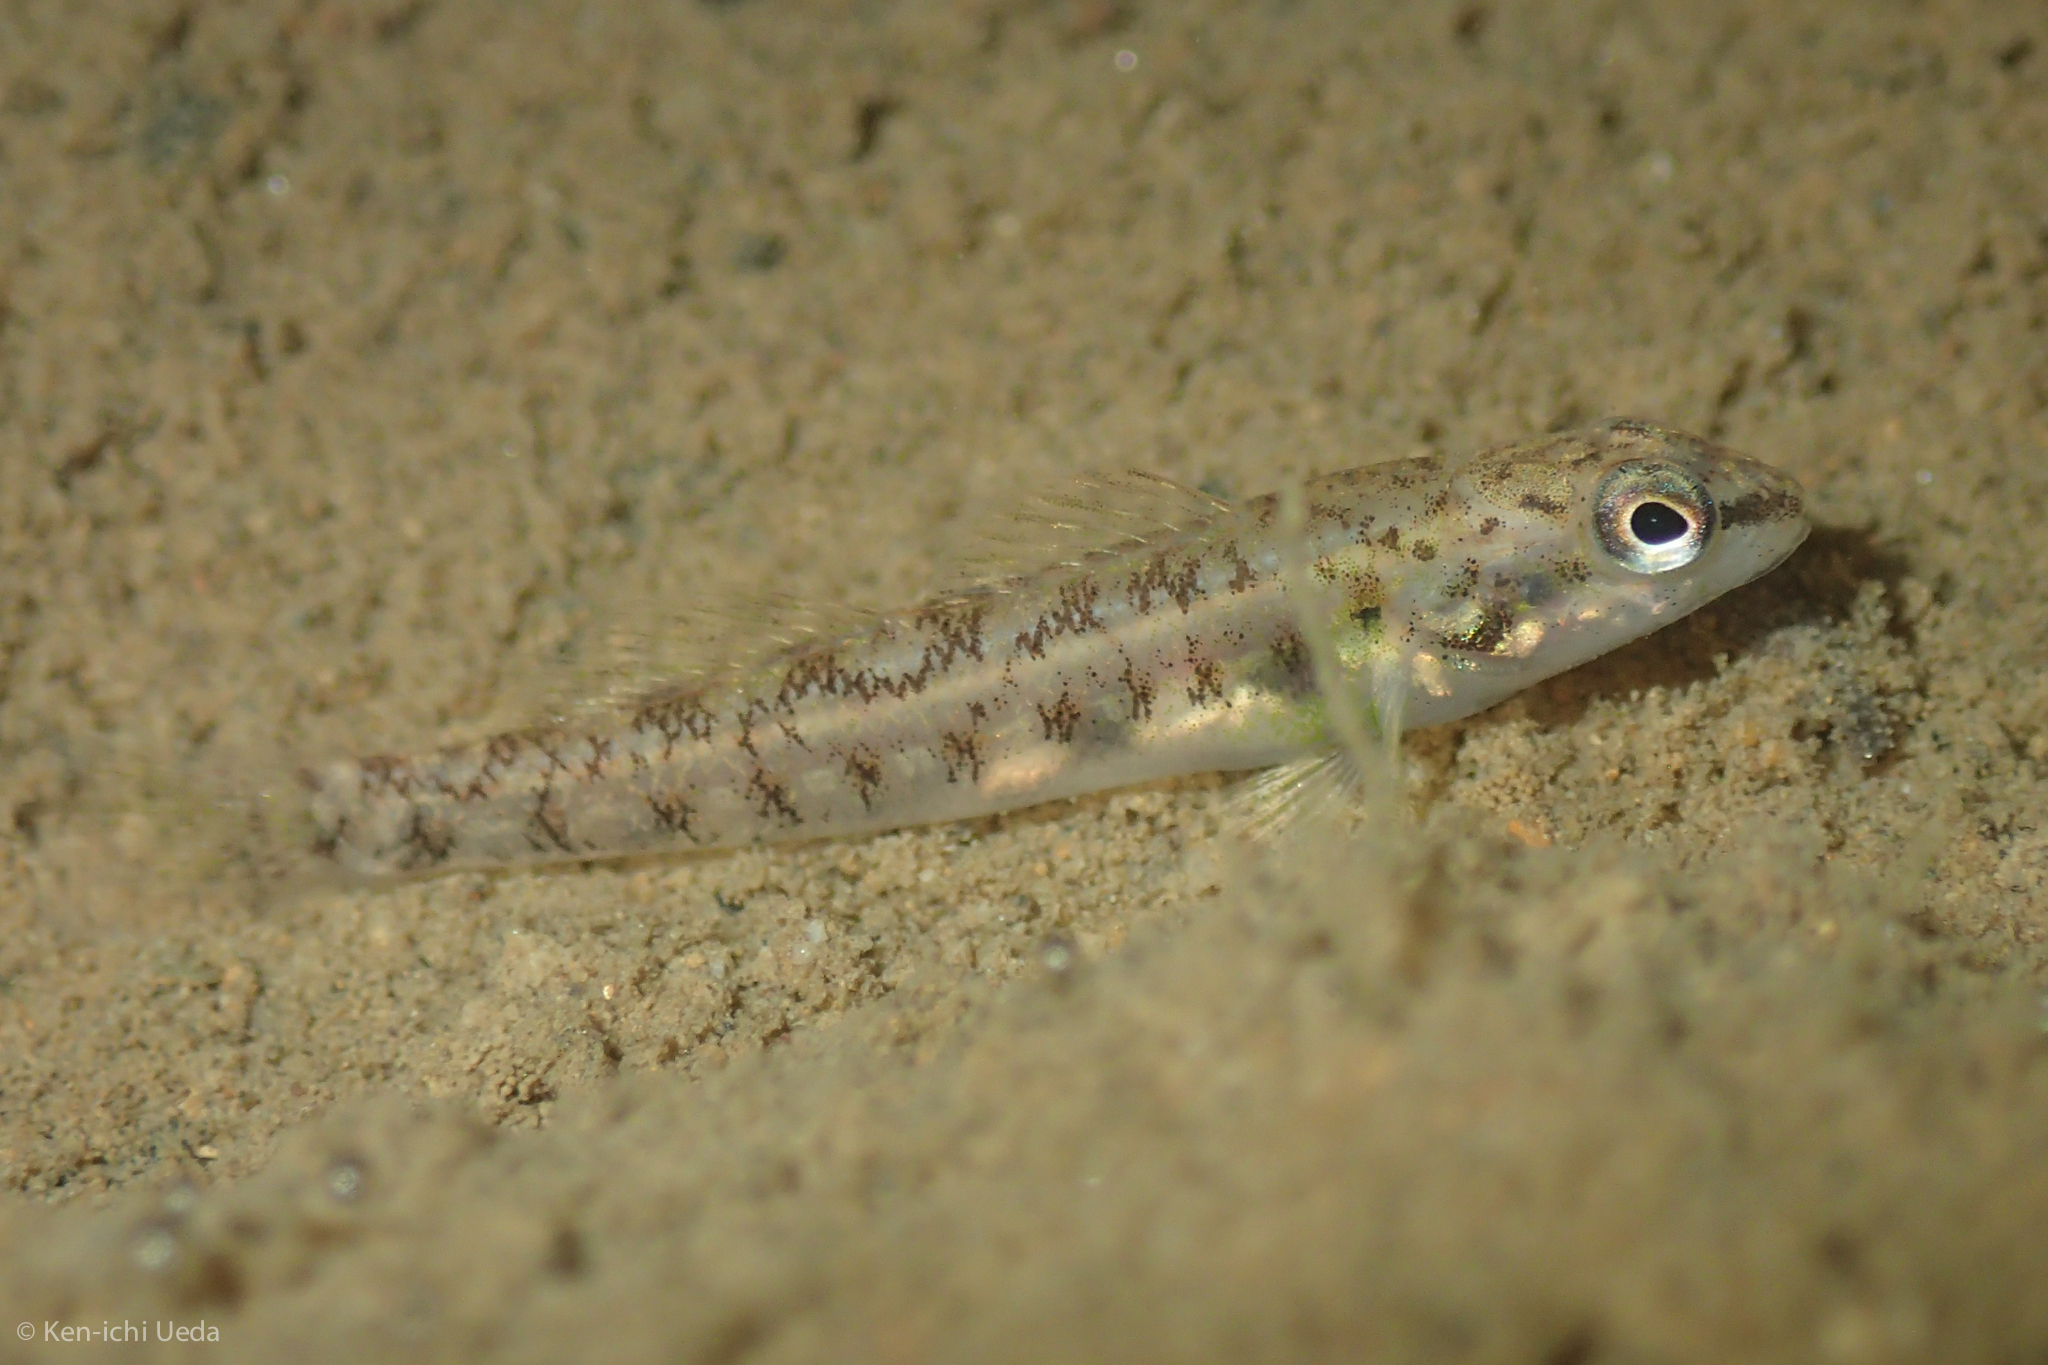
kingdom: Animalia
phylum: Chordata
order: Perciformes
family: Percidae
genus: Etheostoma
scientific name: Etheostoma nigrum
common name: Johnny darter
